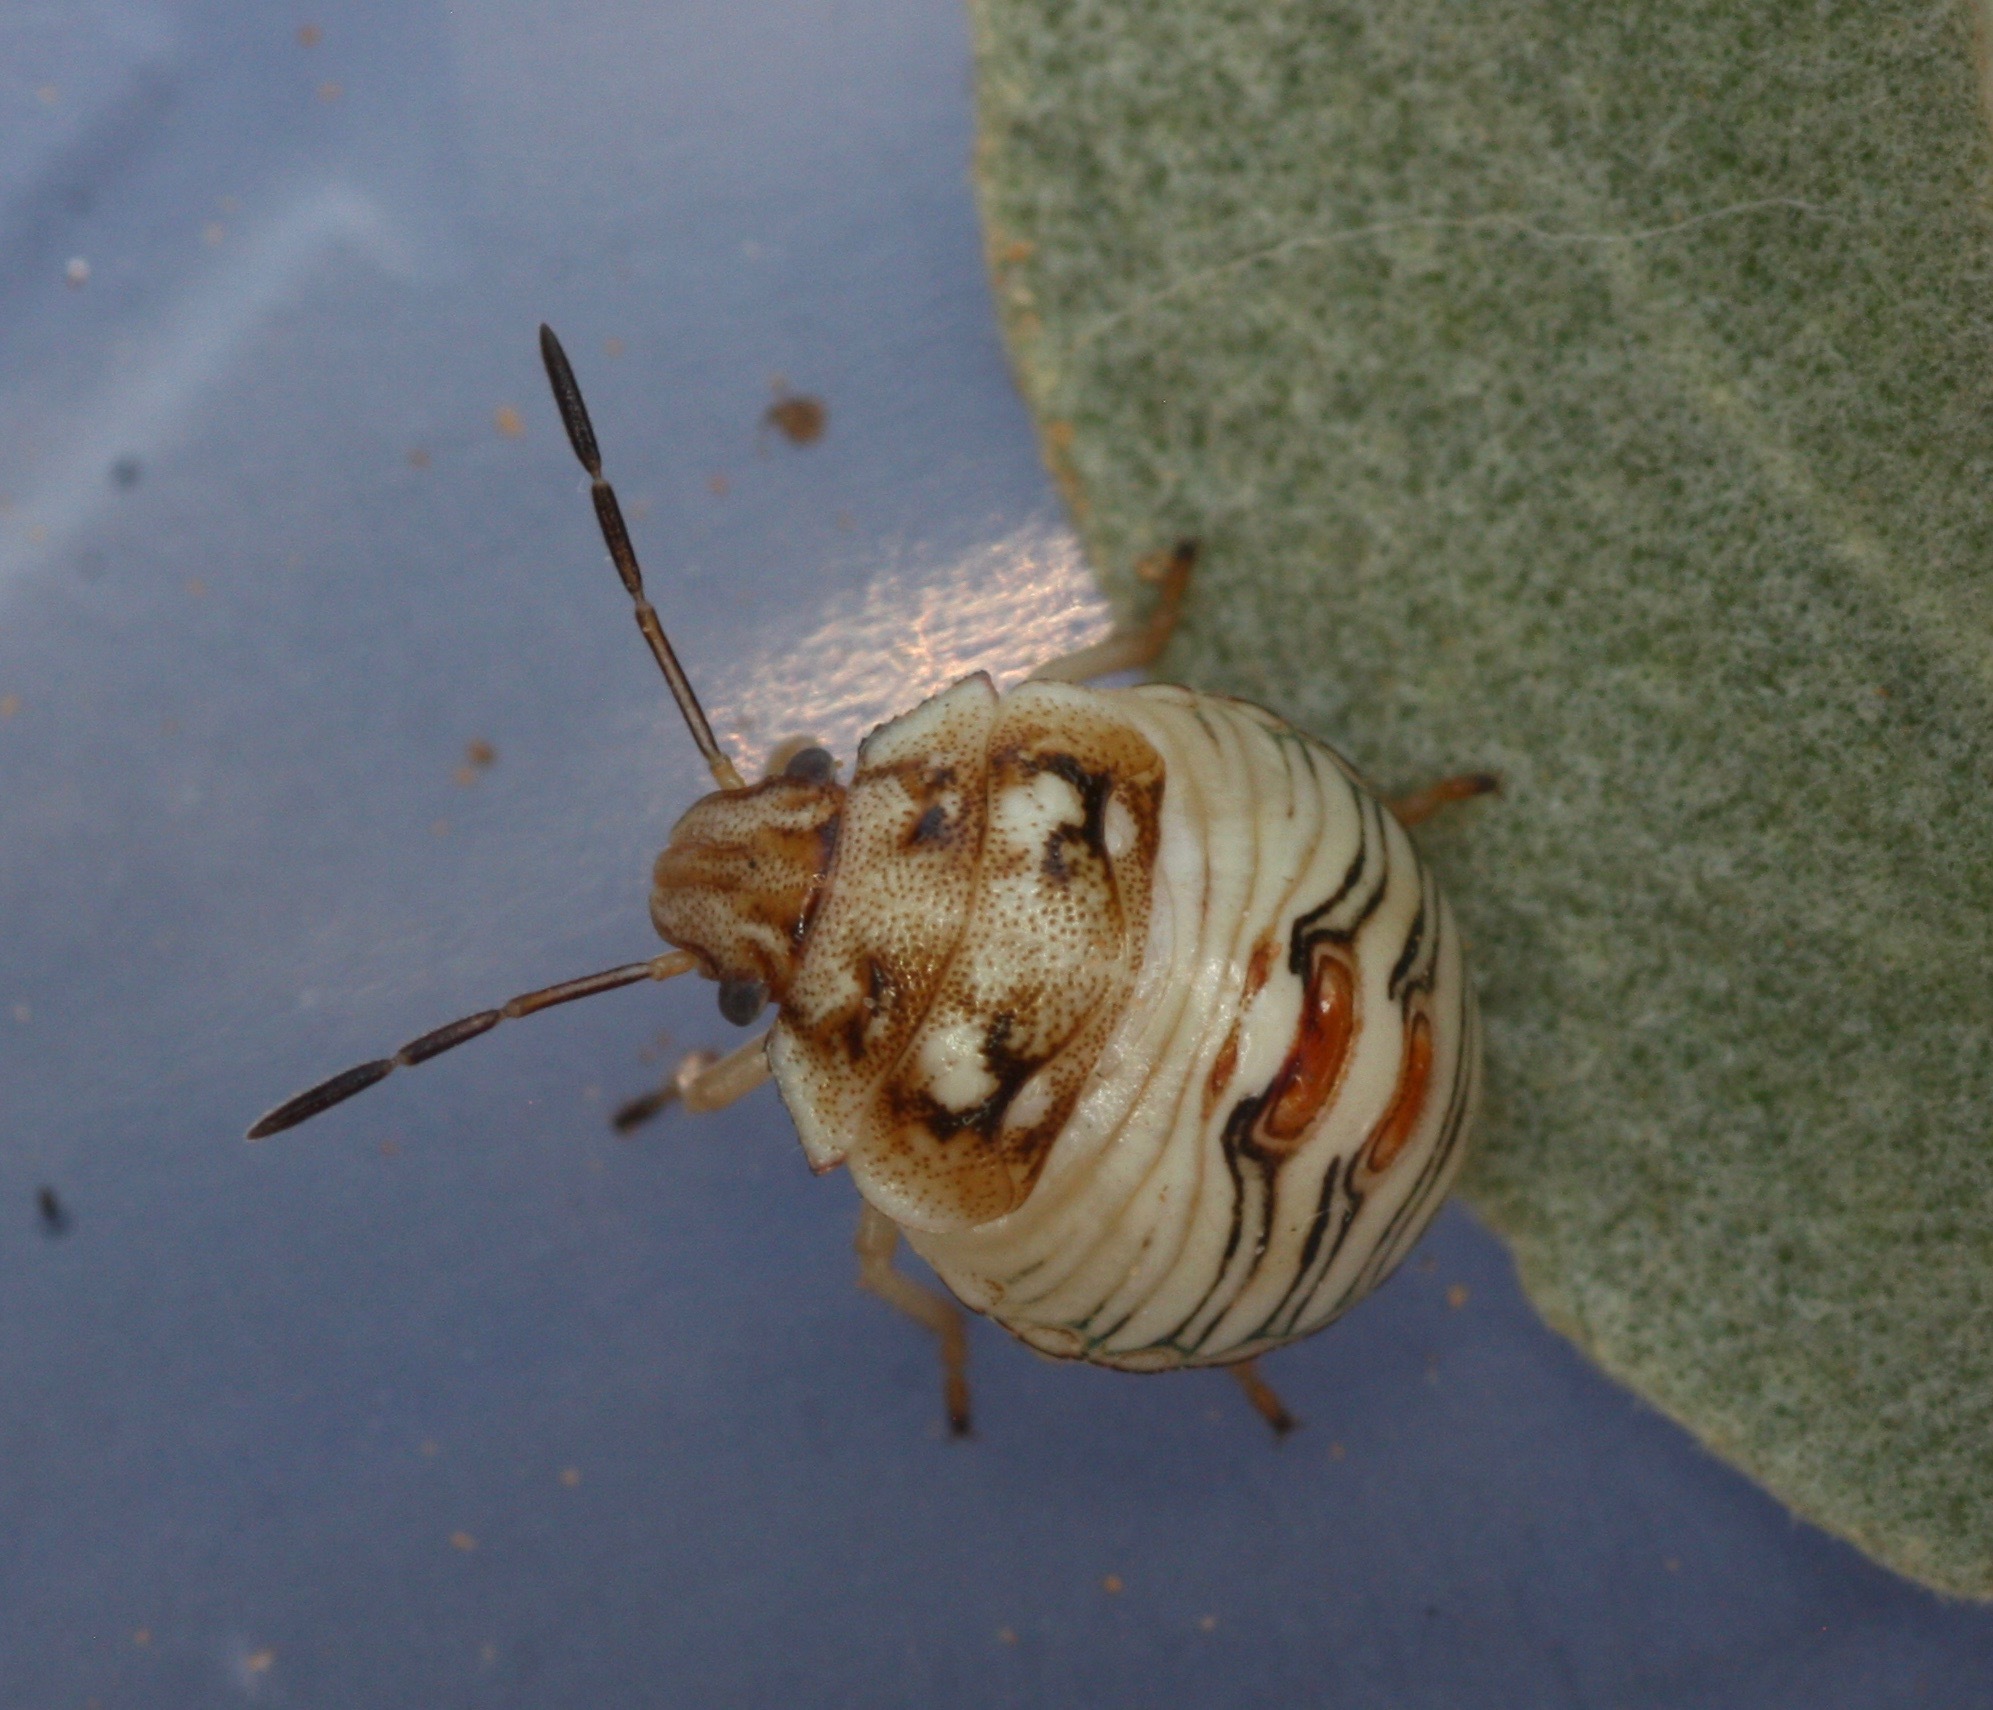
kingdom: Animalia
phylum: Arthropoda
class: Insecta
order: Hemiptera
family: Pentatomidae
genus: Thyanta
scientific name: Thyanta accerra
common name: Stink bug
